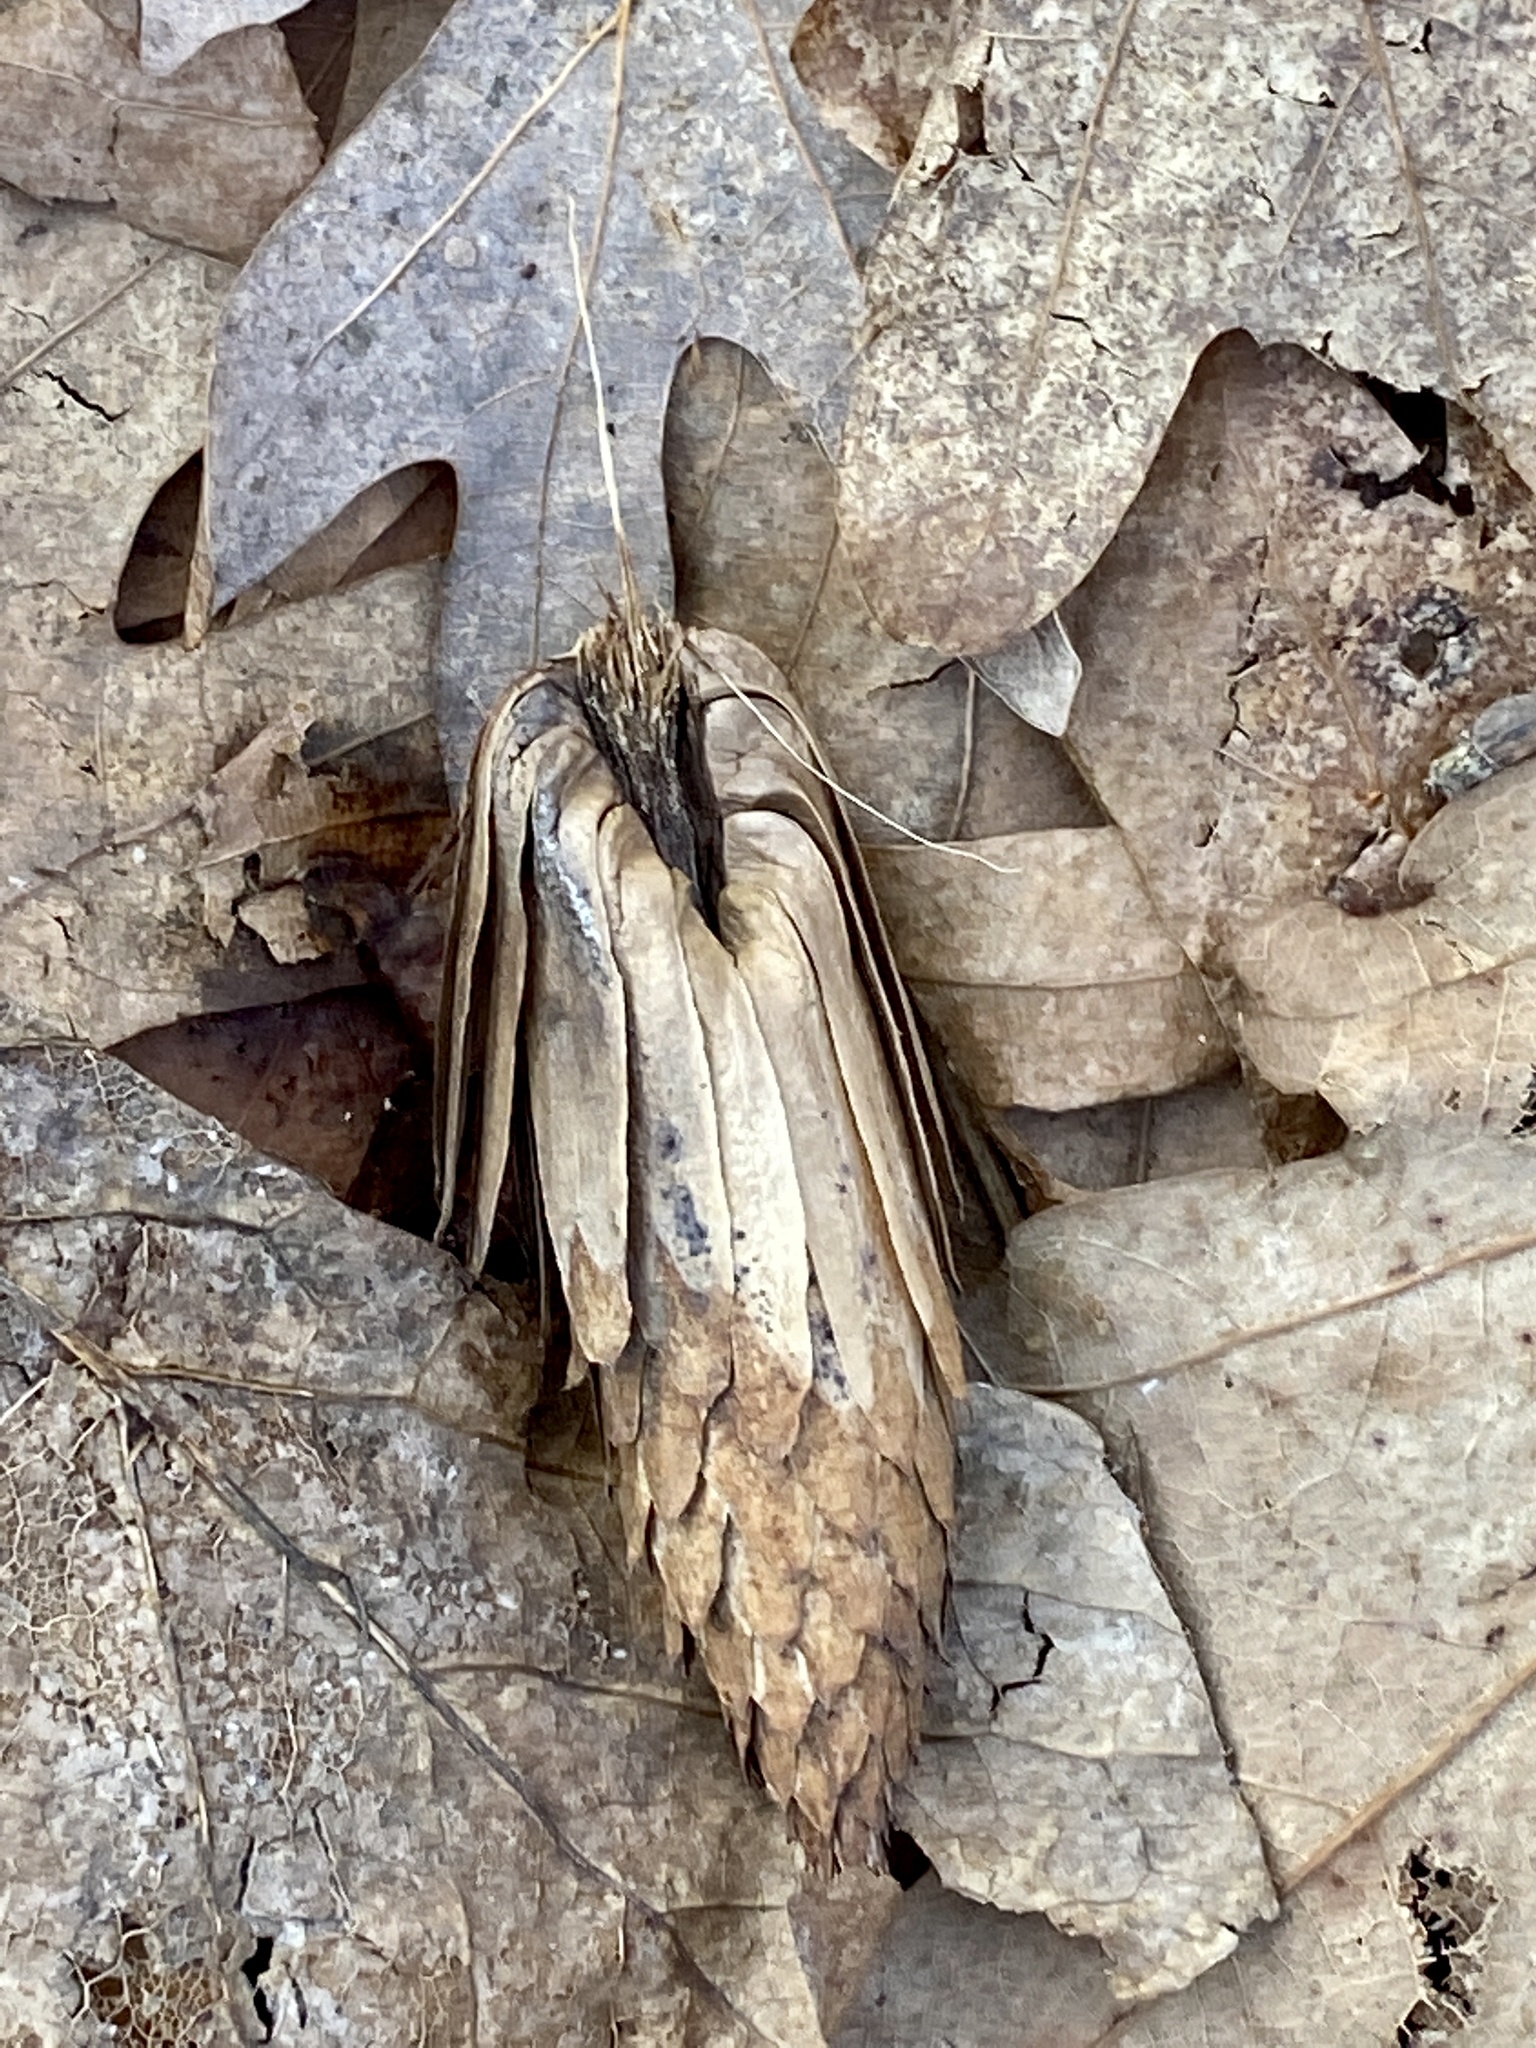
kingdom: Plantae
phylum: Tracheophyta
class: Magnoliopsida
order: Magnoliales
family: Magnoliaceae
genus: Liriodendron
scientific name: Liriodendron tulipifera
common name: Tulip tree
